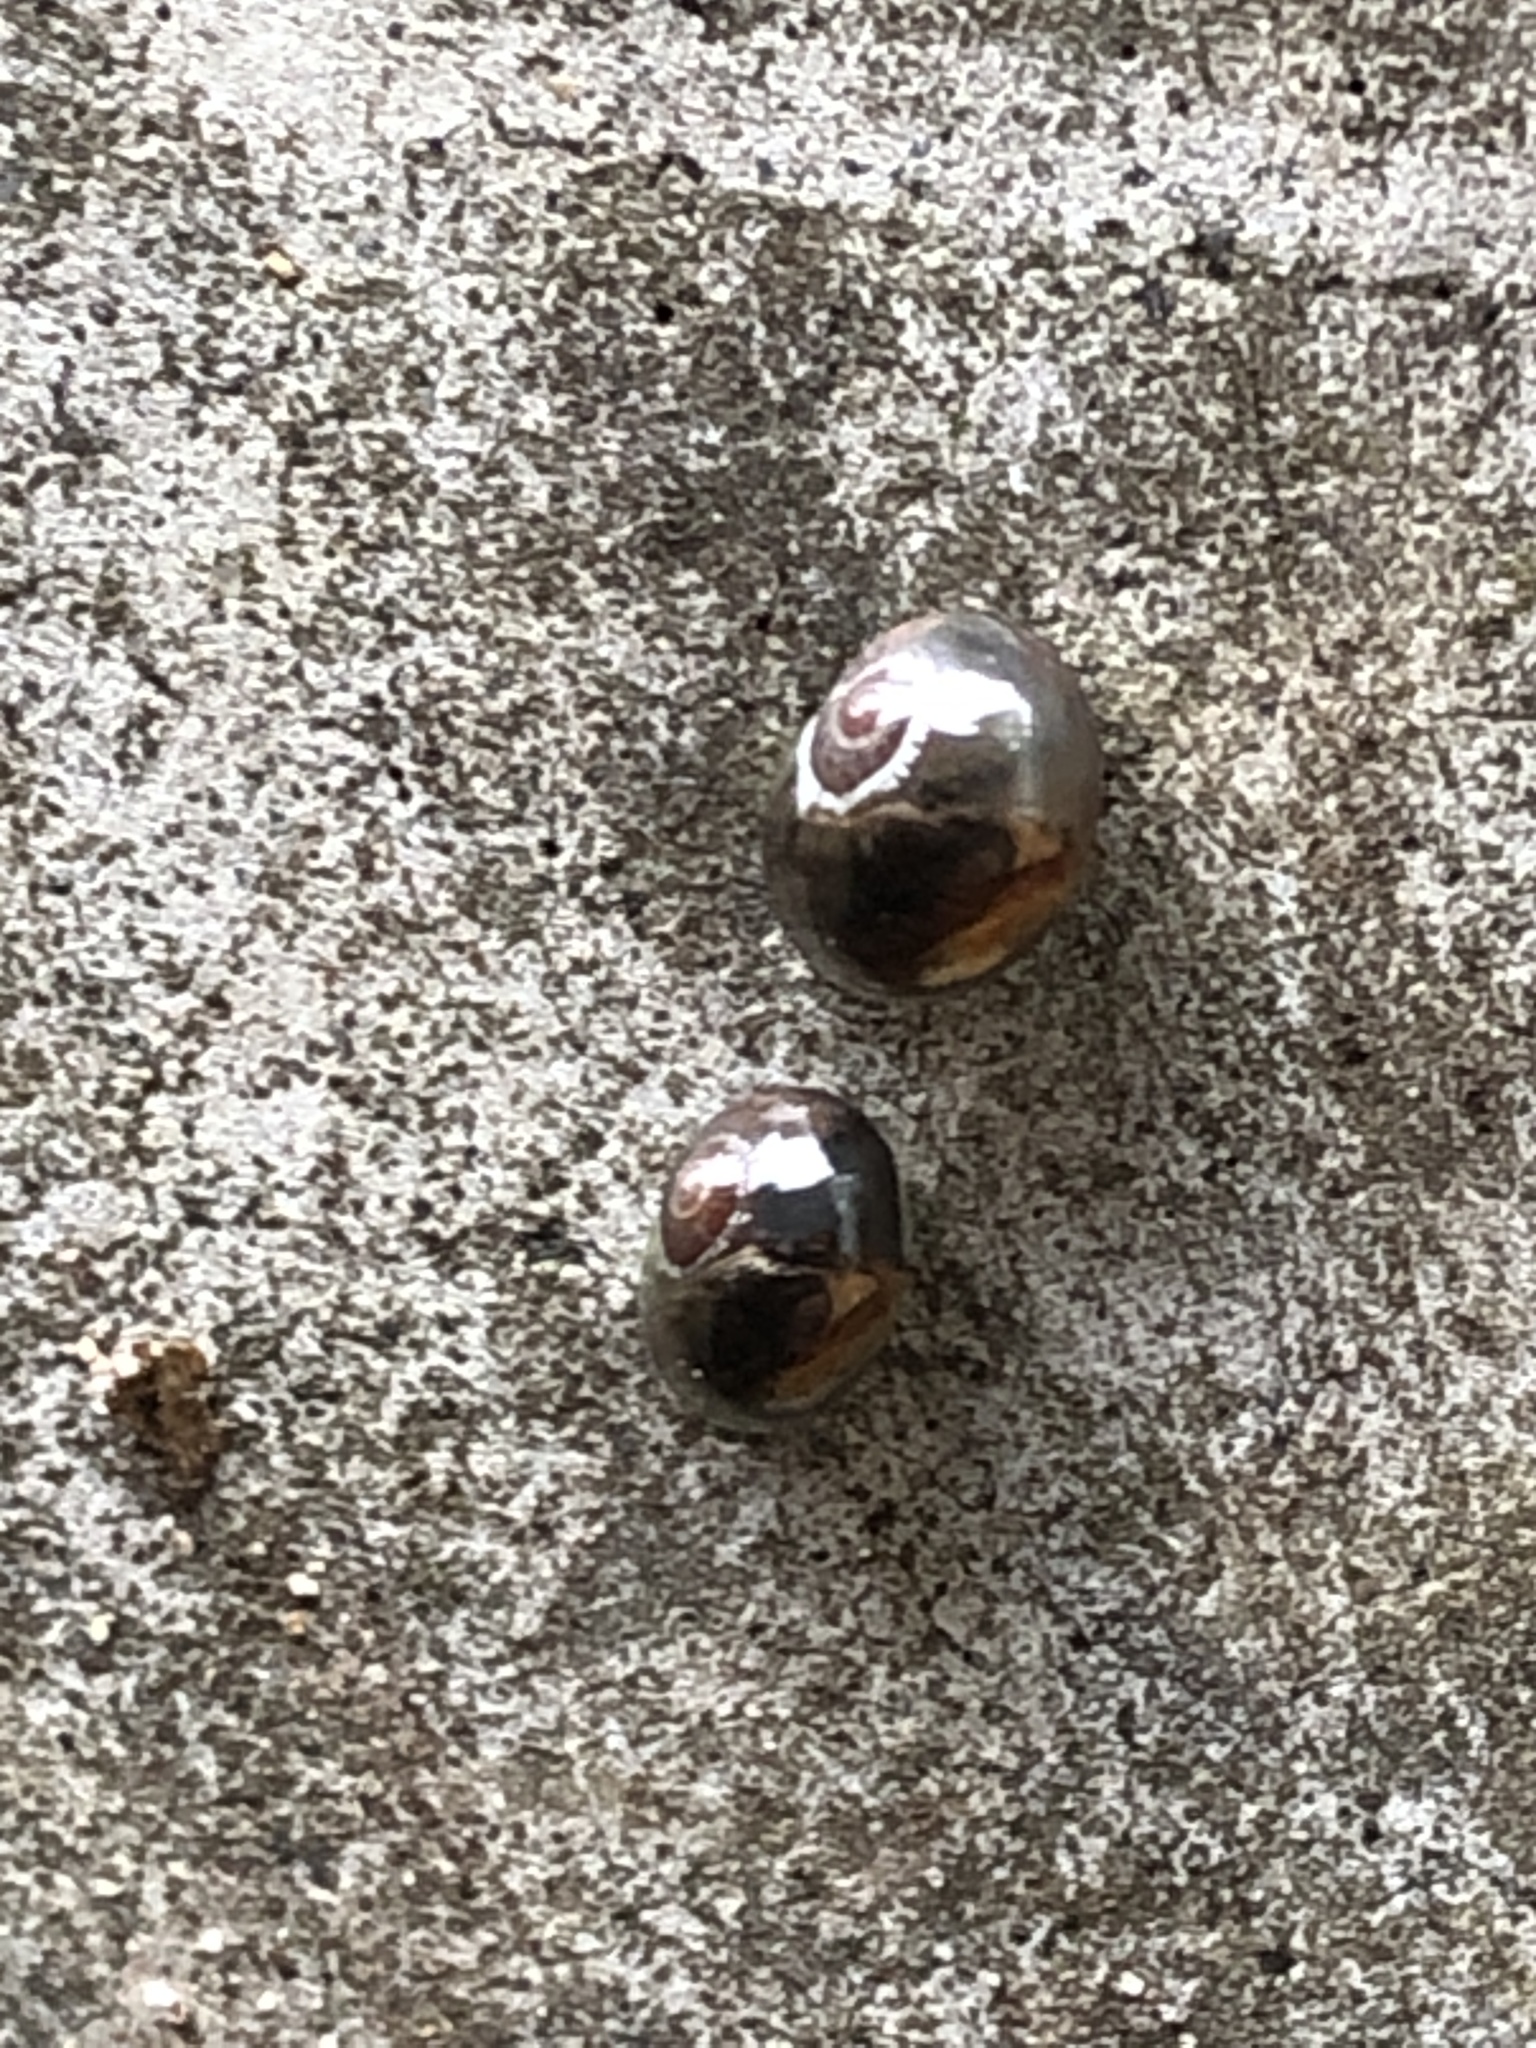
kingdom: Animalia
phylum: Mollusca
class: Gastropoda
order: Stylommatophora
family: Vitrinidae
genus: Vitrina
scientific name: Vitrina pellucida
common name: Pellucid glass snail
